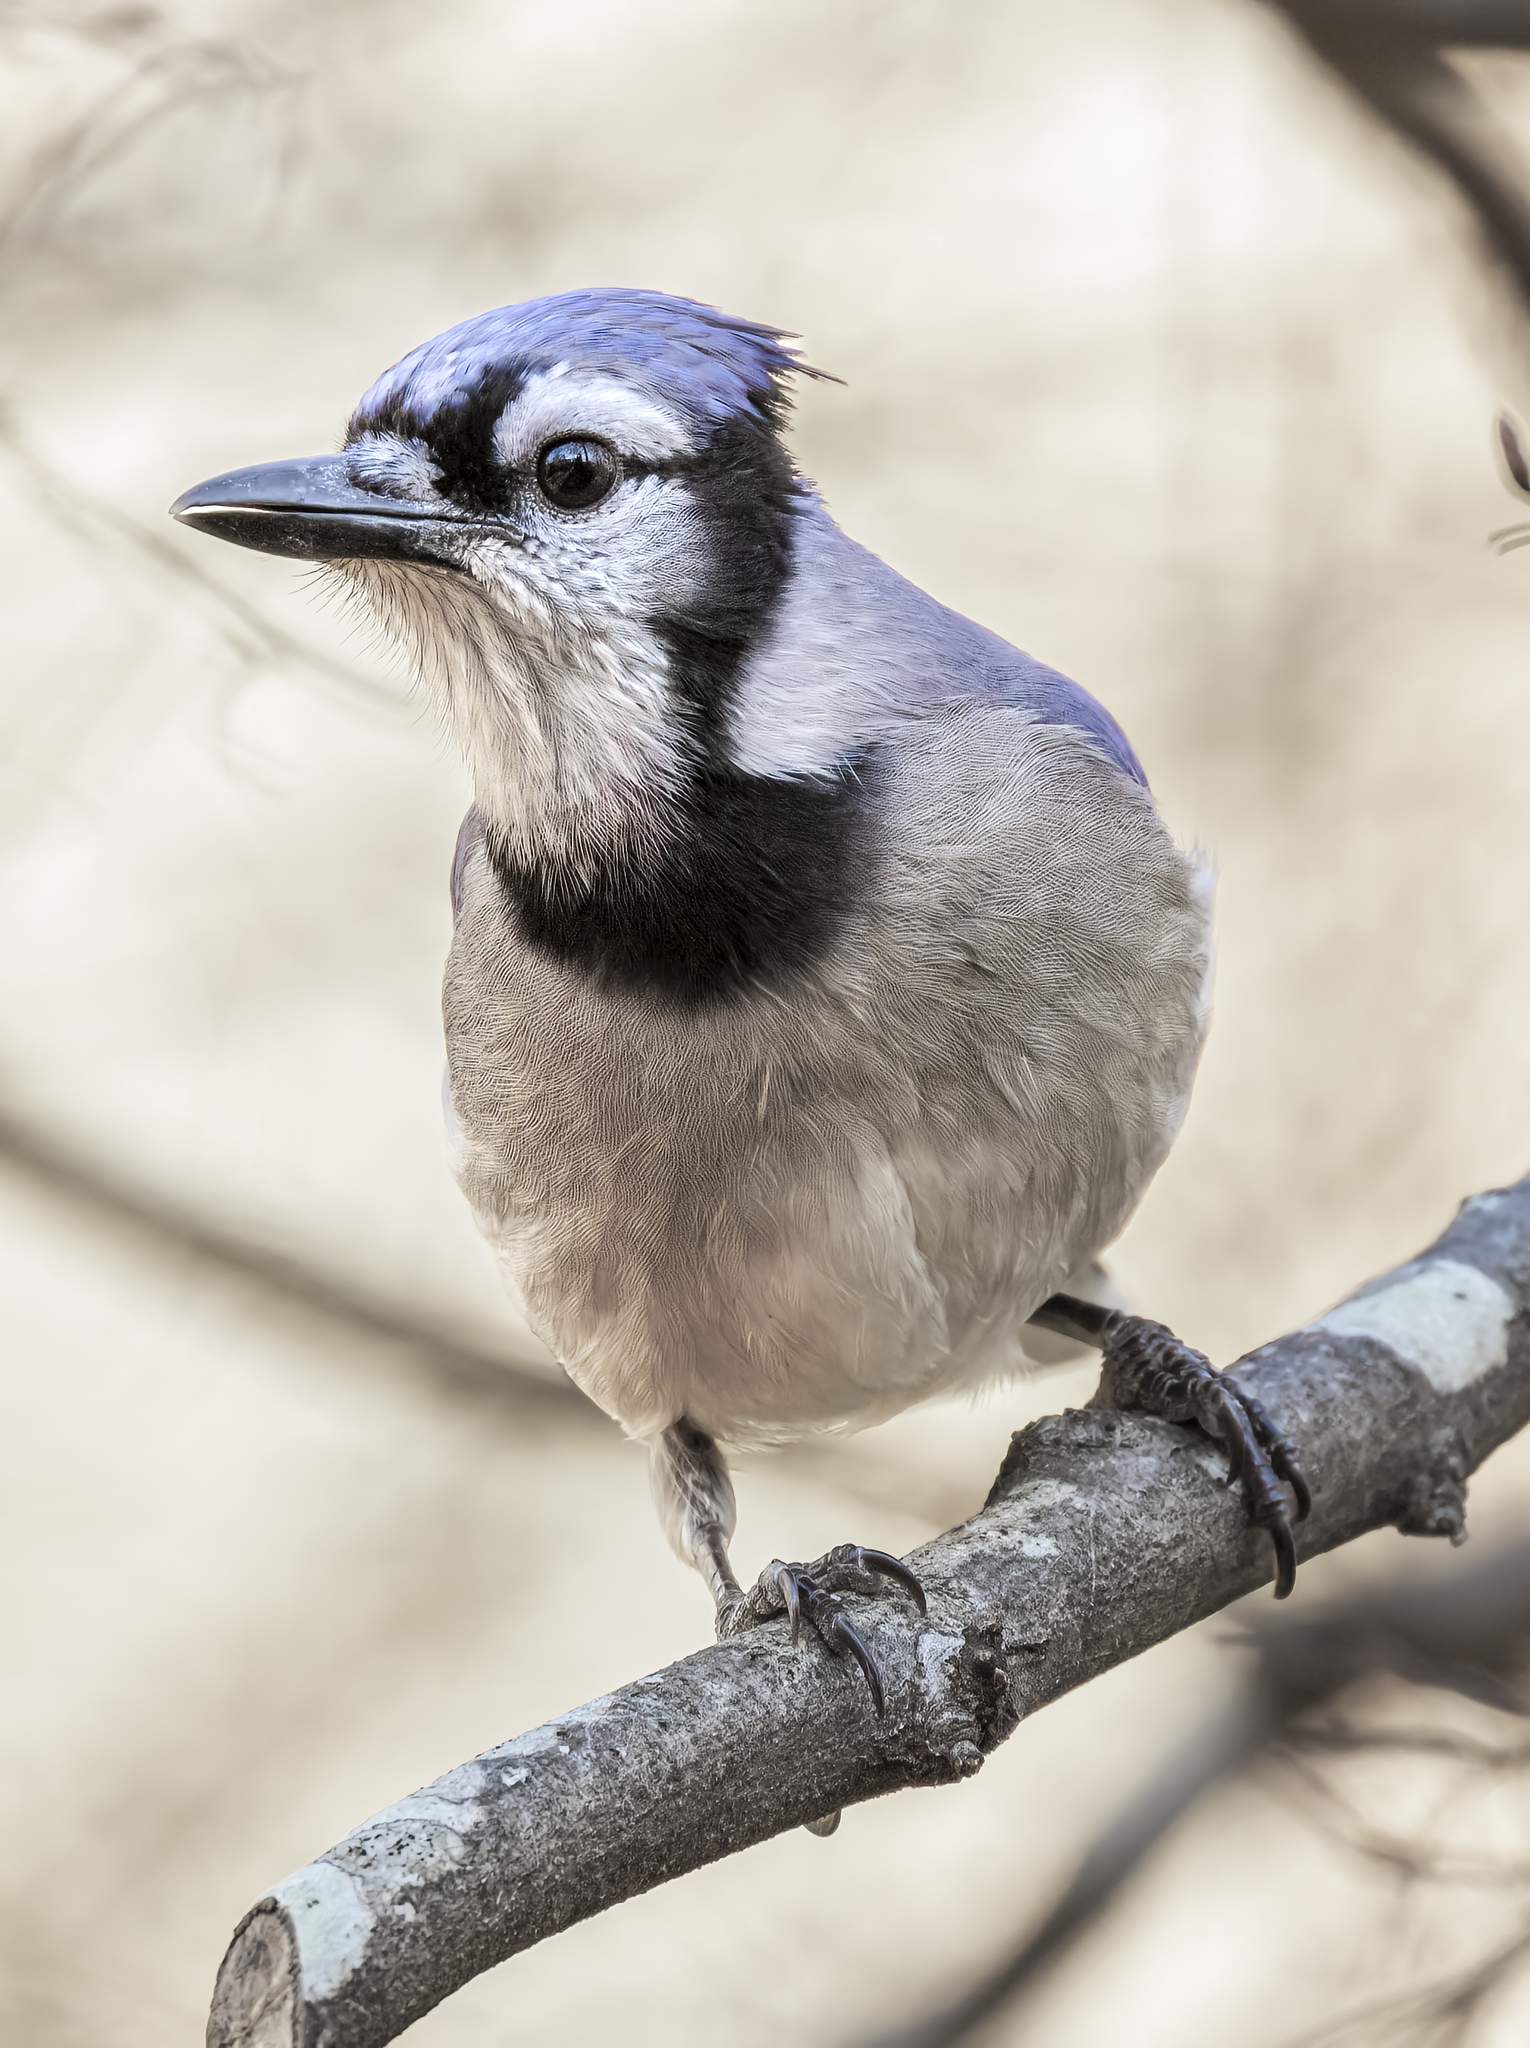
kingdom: Animalia
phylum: Chordata
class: Aves
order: Passeriformes
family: Corvidae
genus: Cyanocitta
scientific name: Cyanocitta cristata
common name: Blue jay
